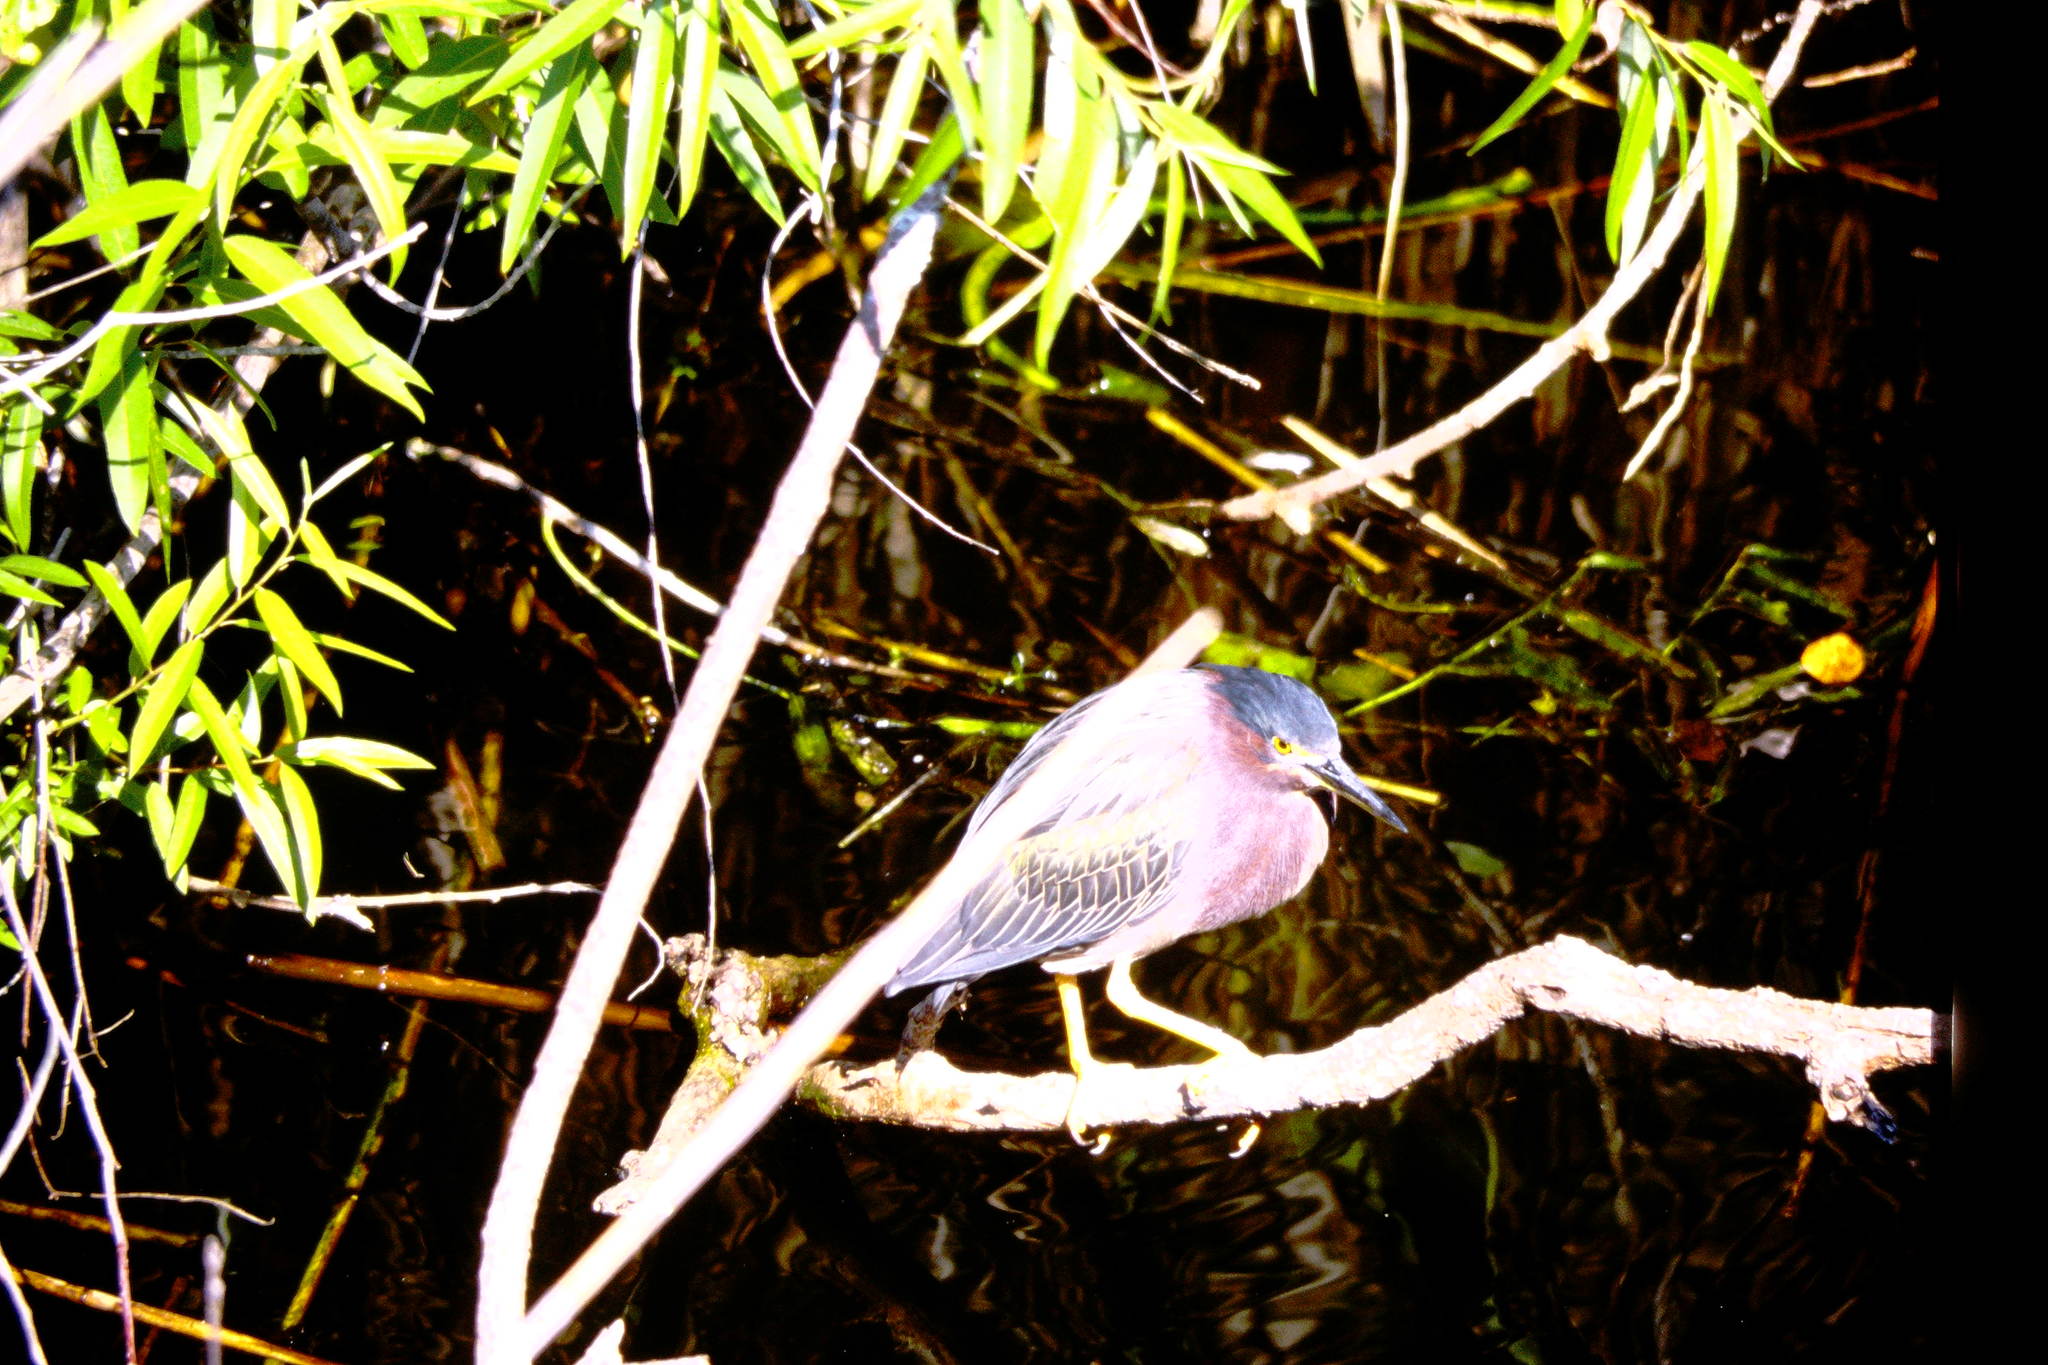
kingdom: Animalia
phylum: Chordata
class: Aves
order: Pelecaniformes
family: Ardeidae
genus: Butorides
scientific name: Butorides virescens
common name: Green heron
